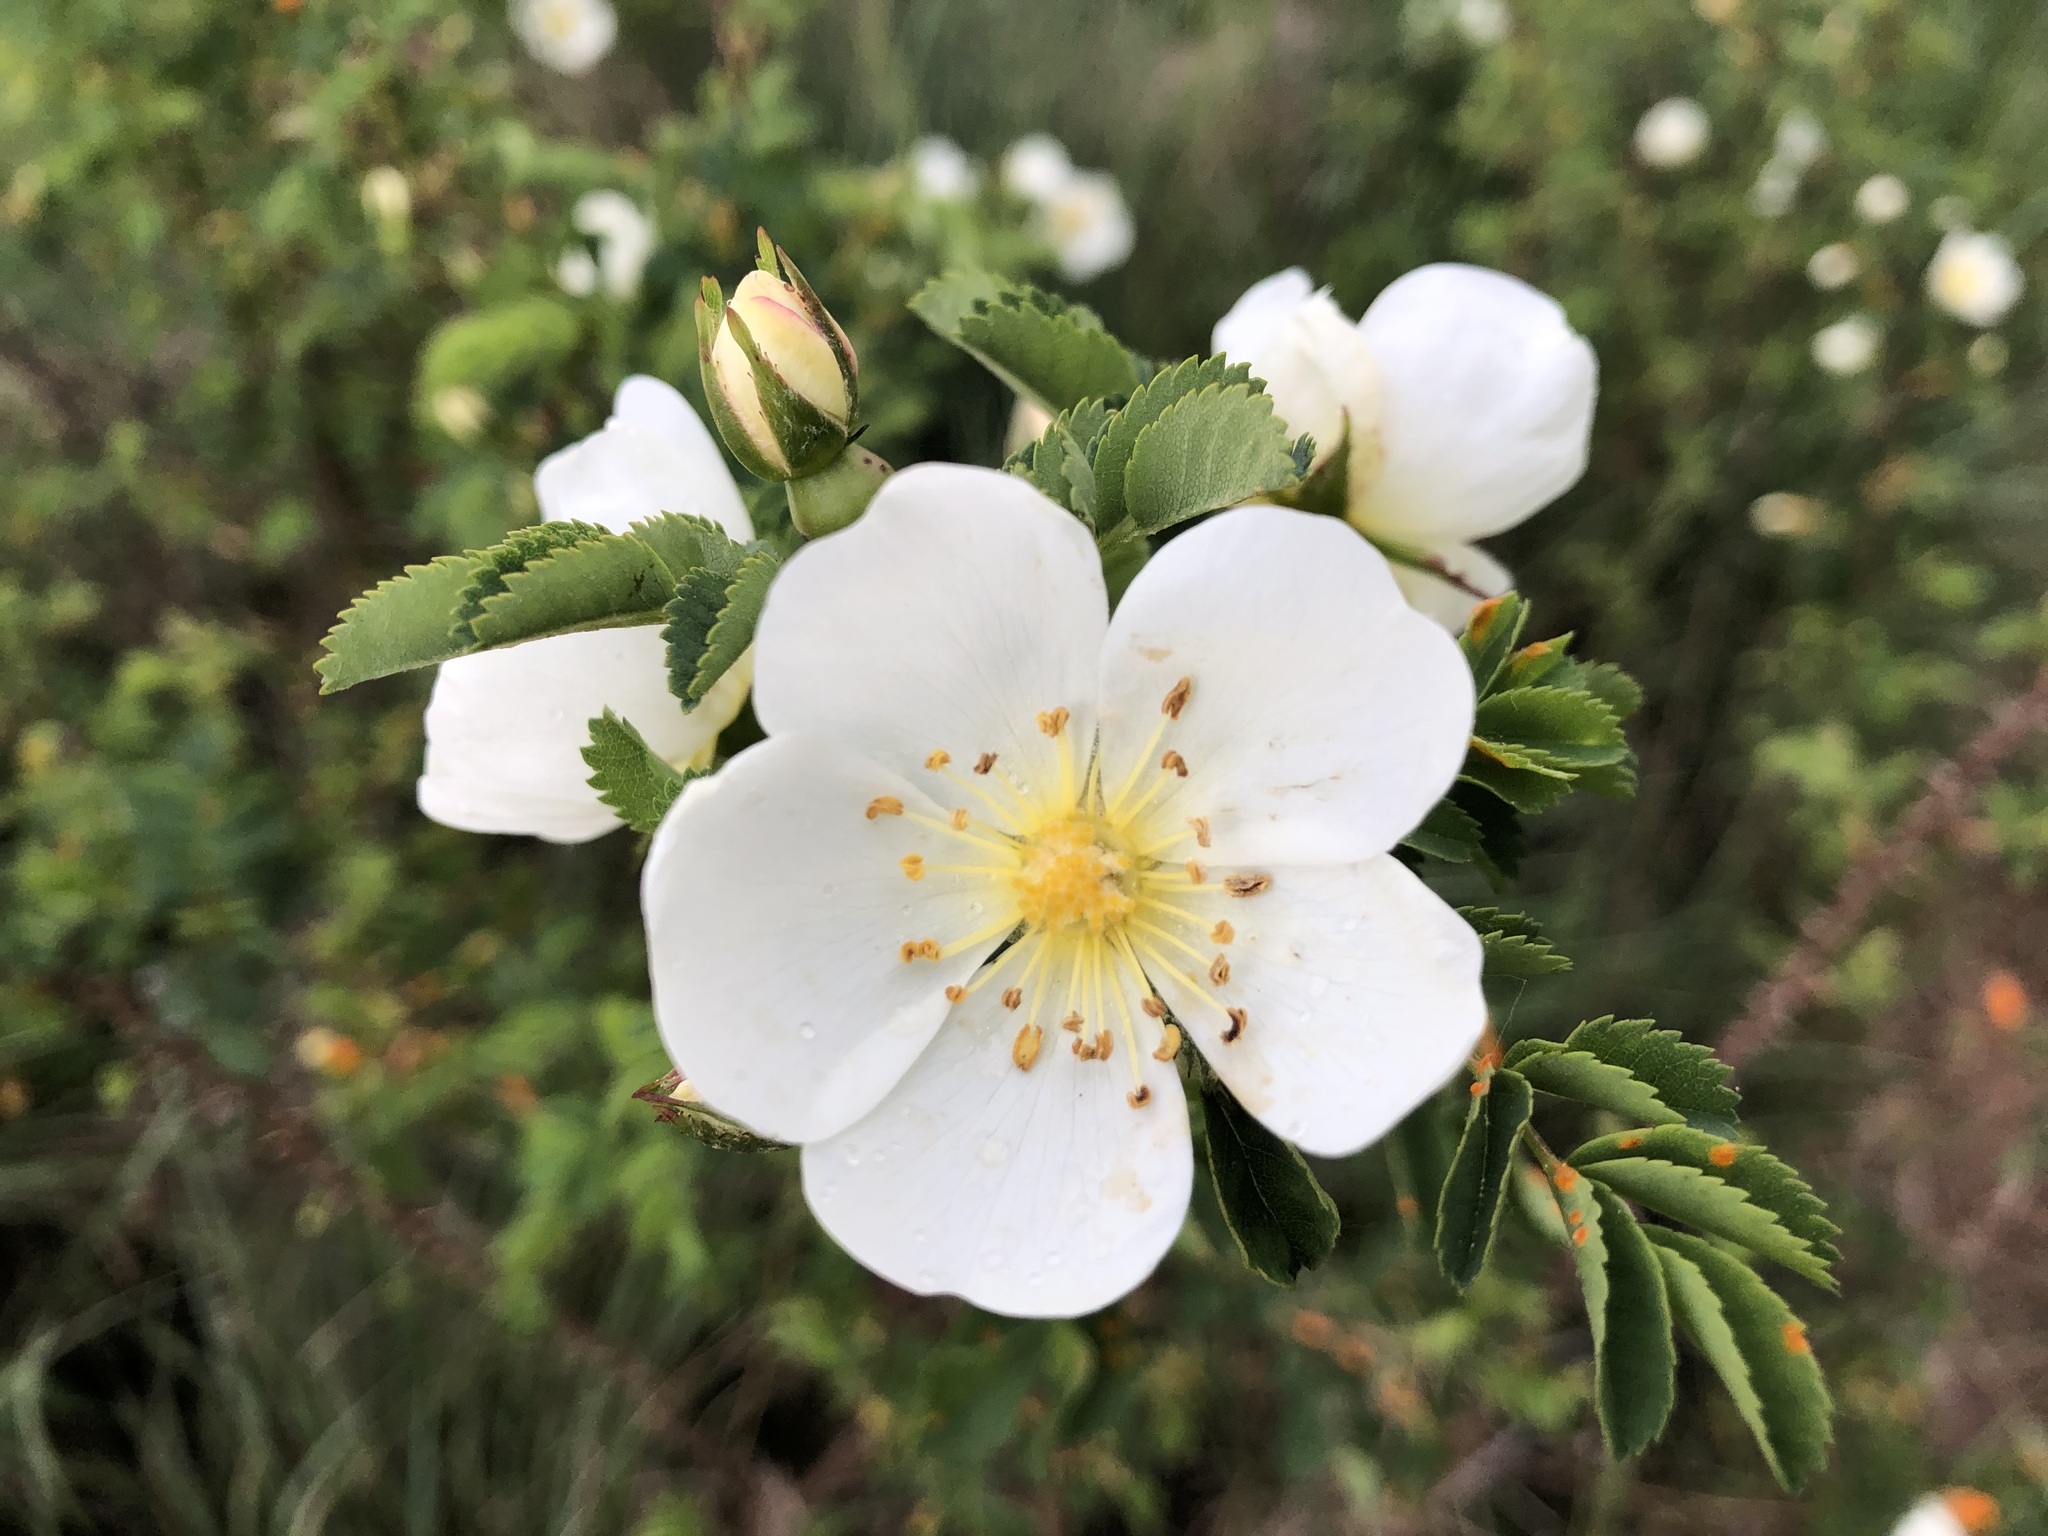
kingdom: Plantae
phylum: Tracheophyta
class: Magnoliopsida
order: Rosales
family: Rosaceae
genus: Rosa
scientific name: Rosa spinosissima
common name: Burnet rose
